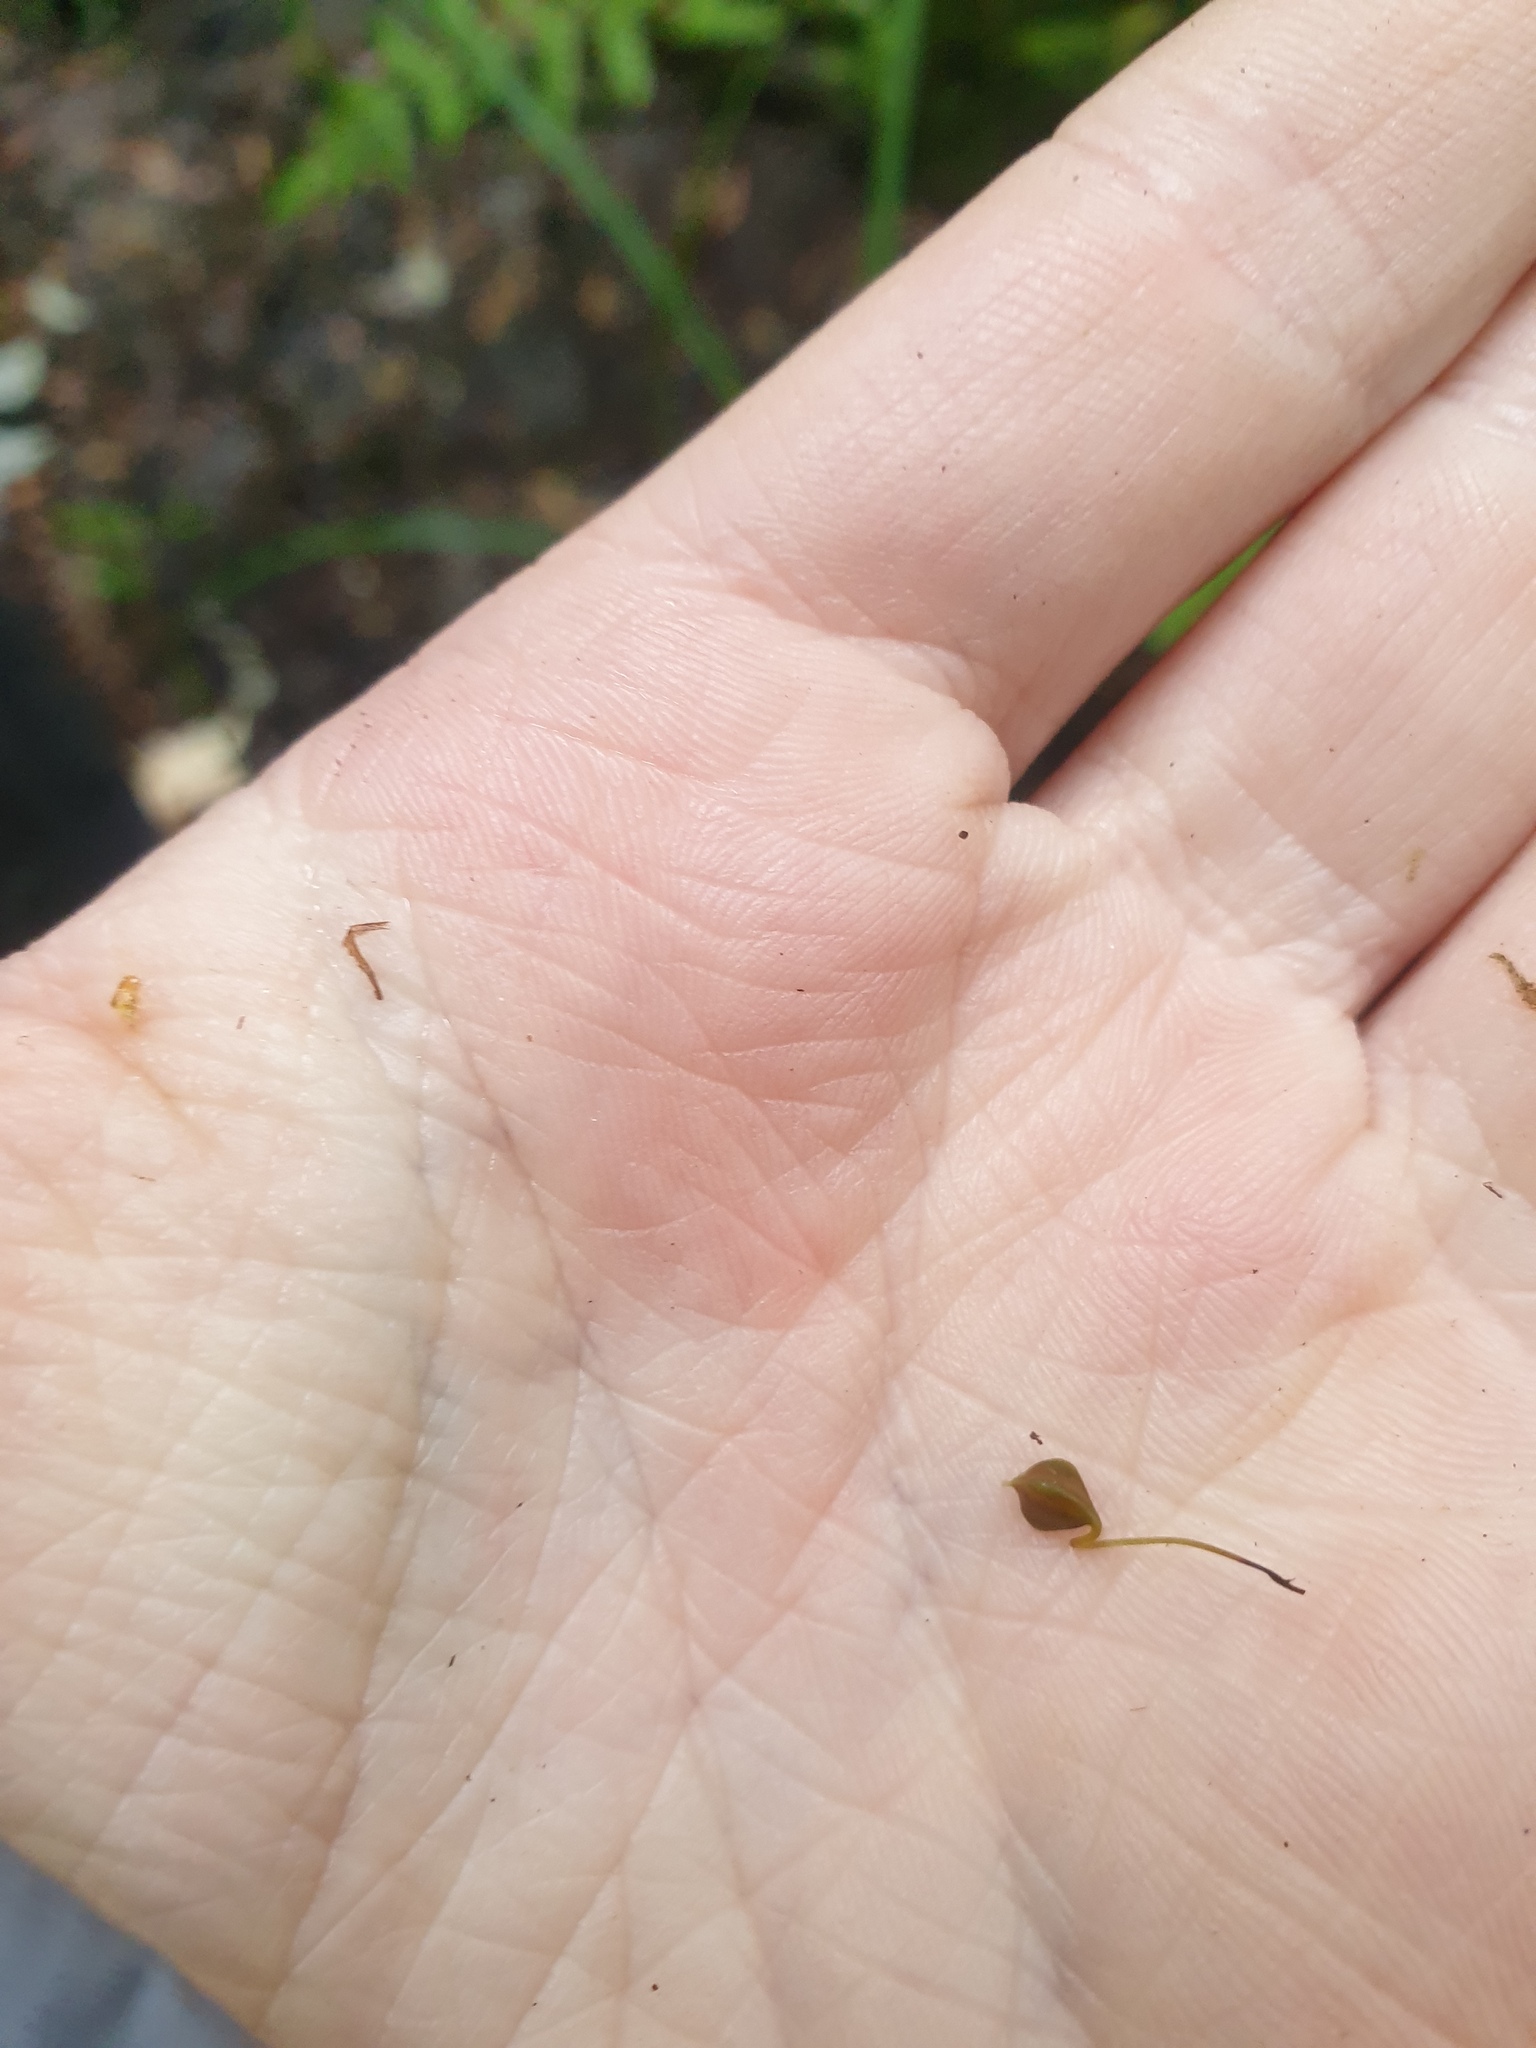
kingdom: Plantae
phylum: Tracheophyta
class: Liliopsida
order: Poales
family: Cyperaceae
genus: Carex
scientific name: Carex lupulina
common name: Hop sedge
